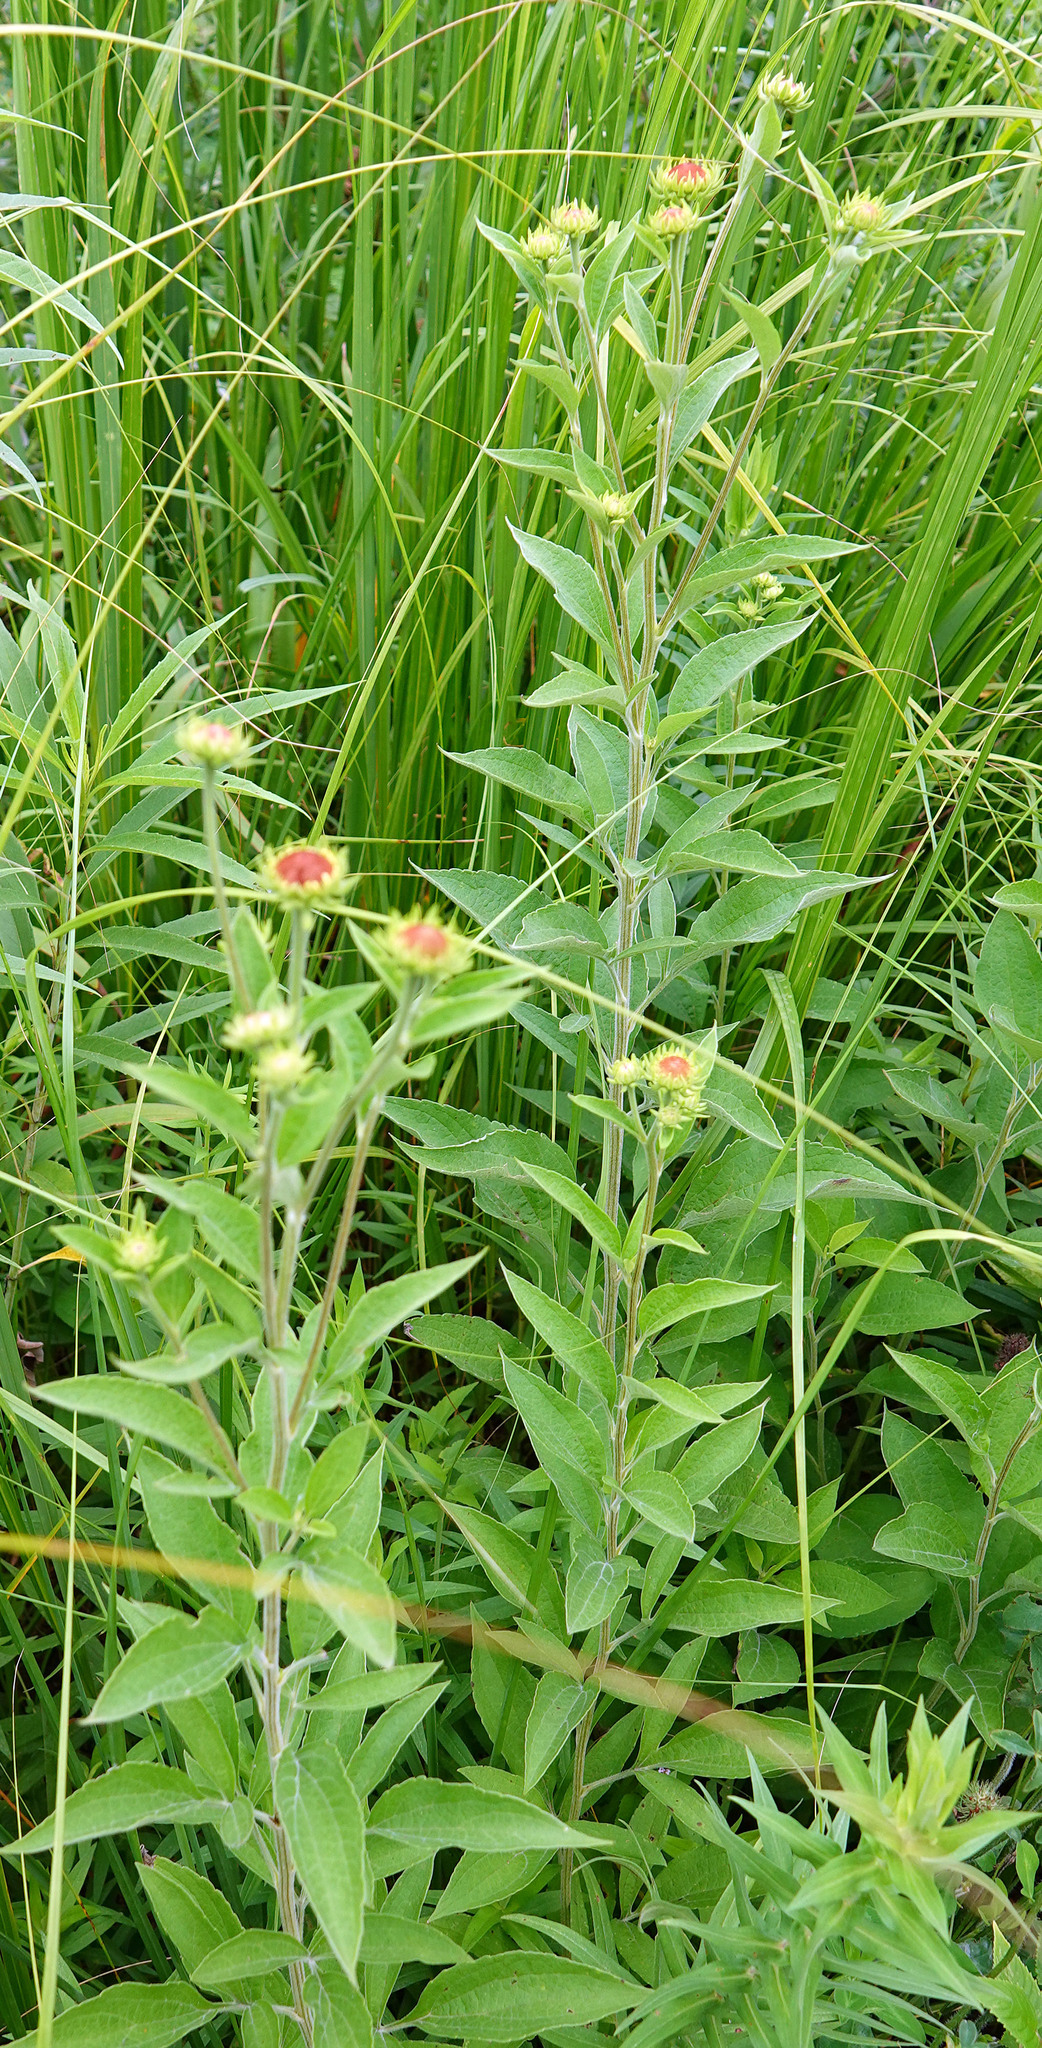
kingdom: Plantae
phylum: Tracheophyta
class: Magnoliopsida
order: Asterales
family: Asteraceae
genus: Rudbeckia
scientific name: Rudbeckia subtomentosa
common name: Sweet coneflower
